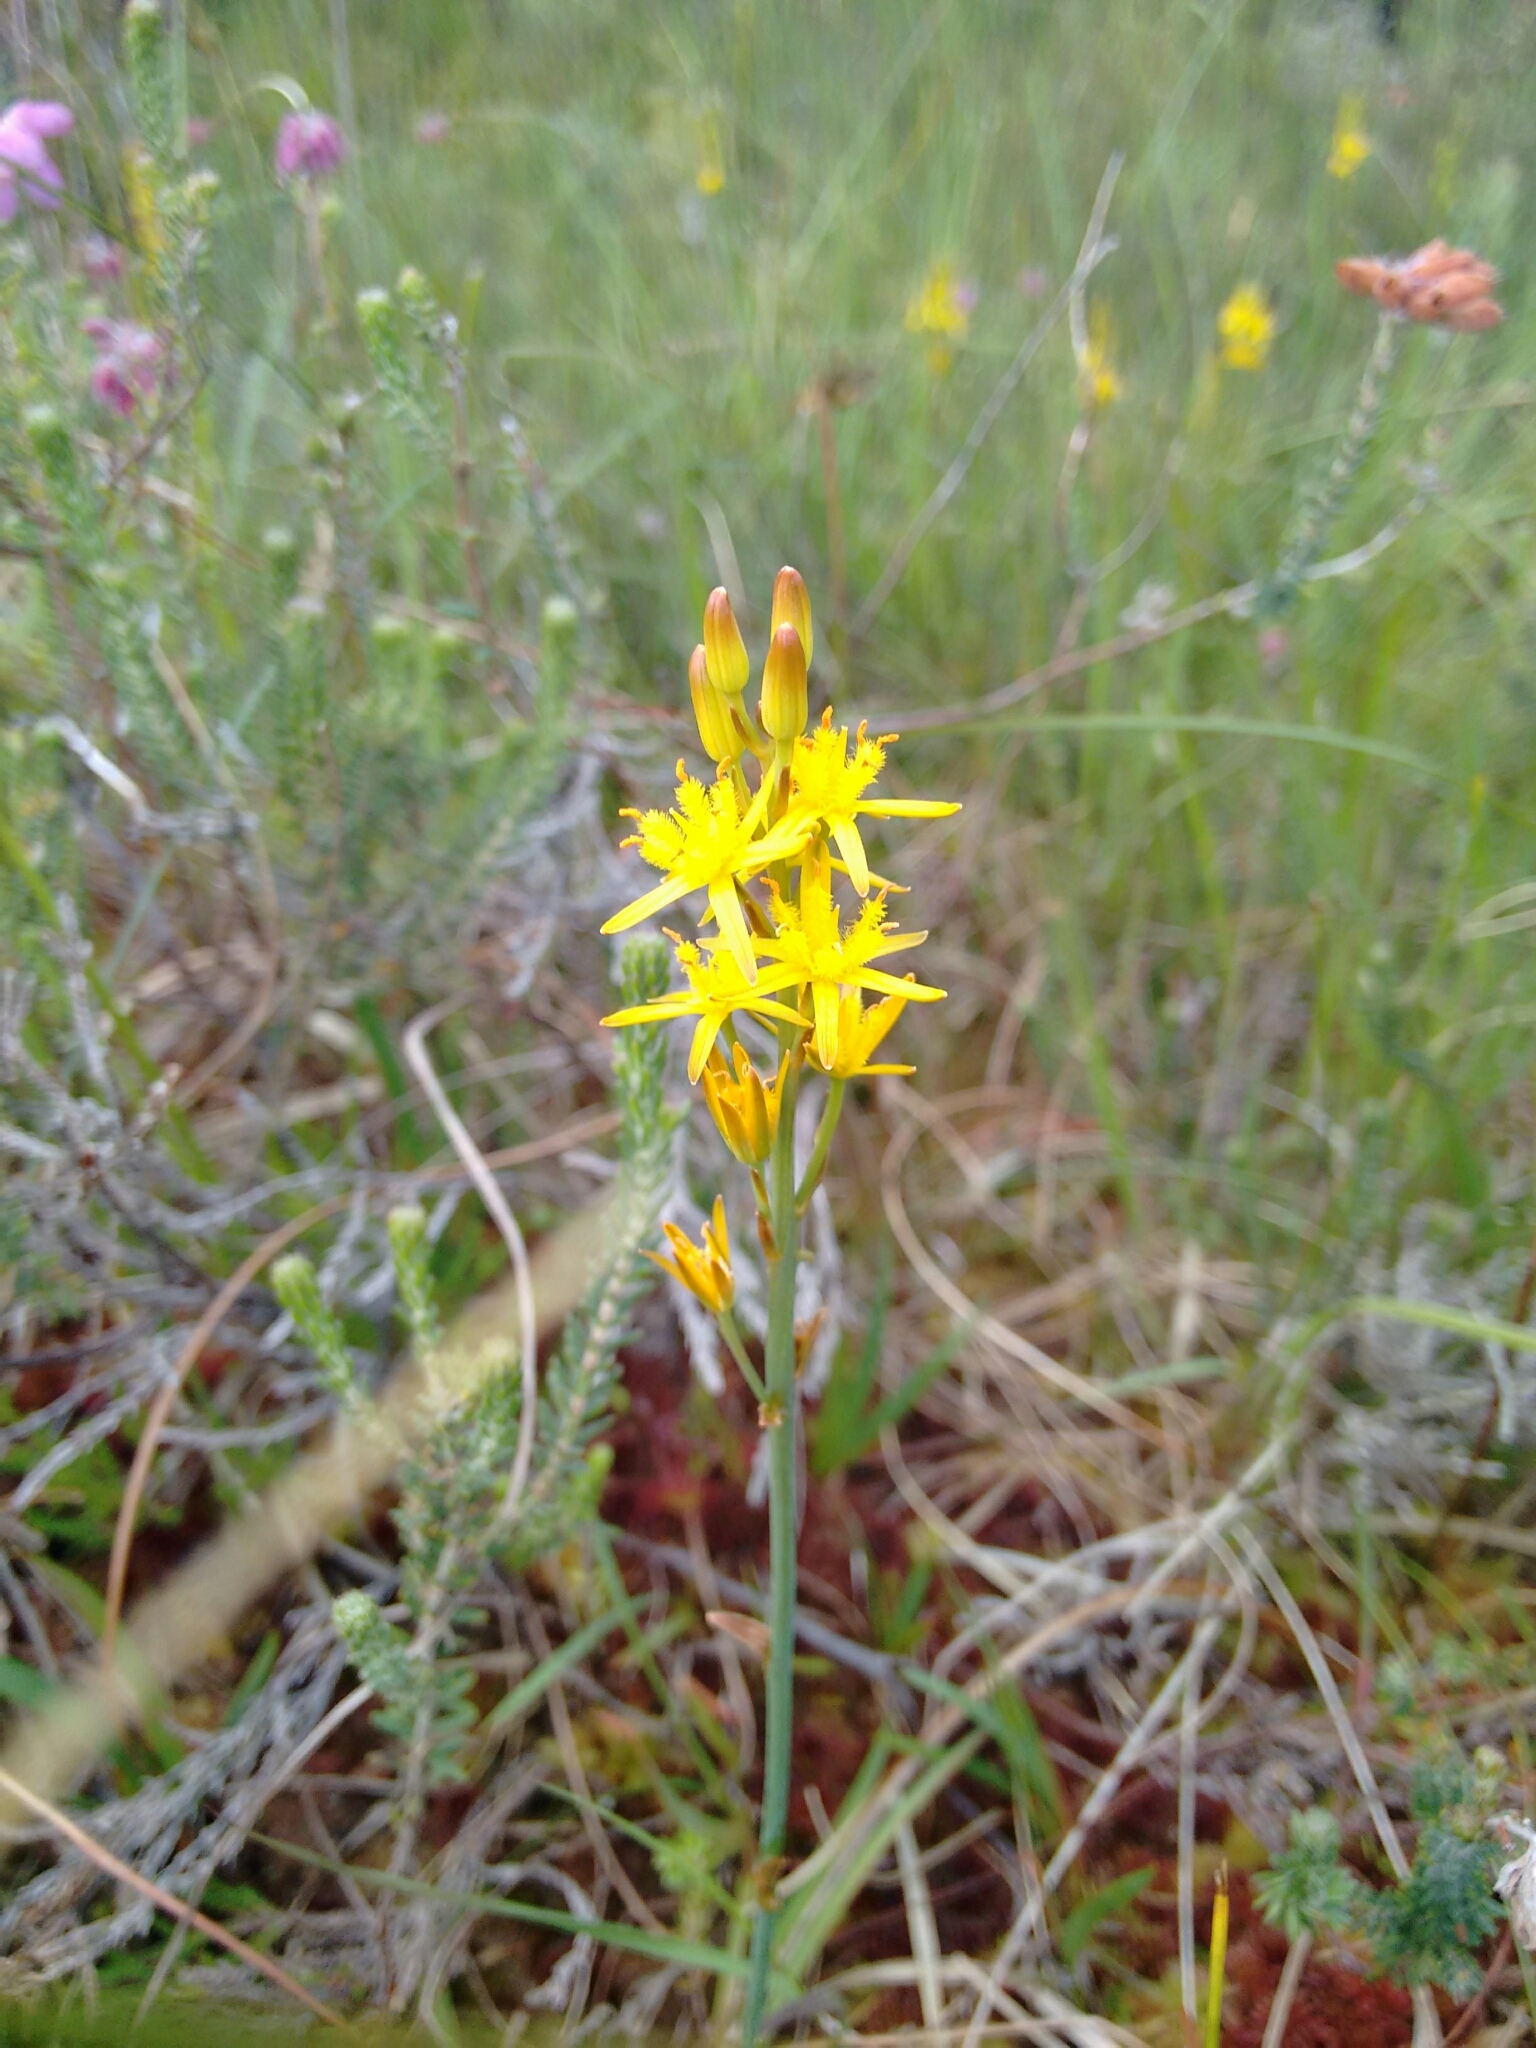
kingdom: Plantae
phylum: Tracheophyta
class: Liliopsida
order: Dioscoreales
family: Nartheciaceae
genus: Narthecium
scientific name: Narthecium ossifragum
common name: Bog asphodel
